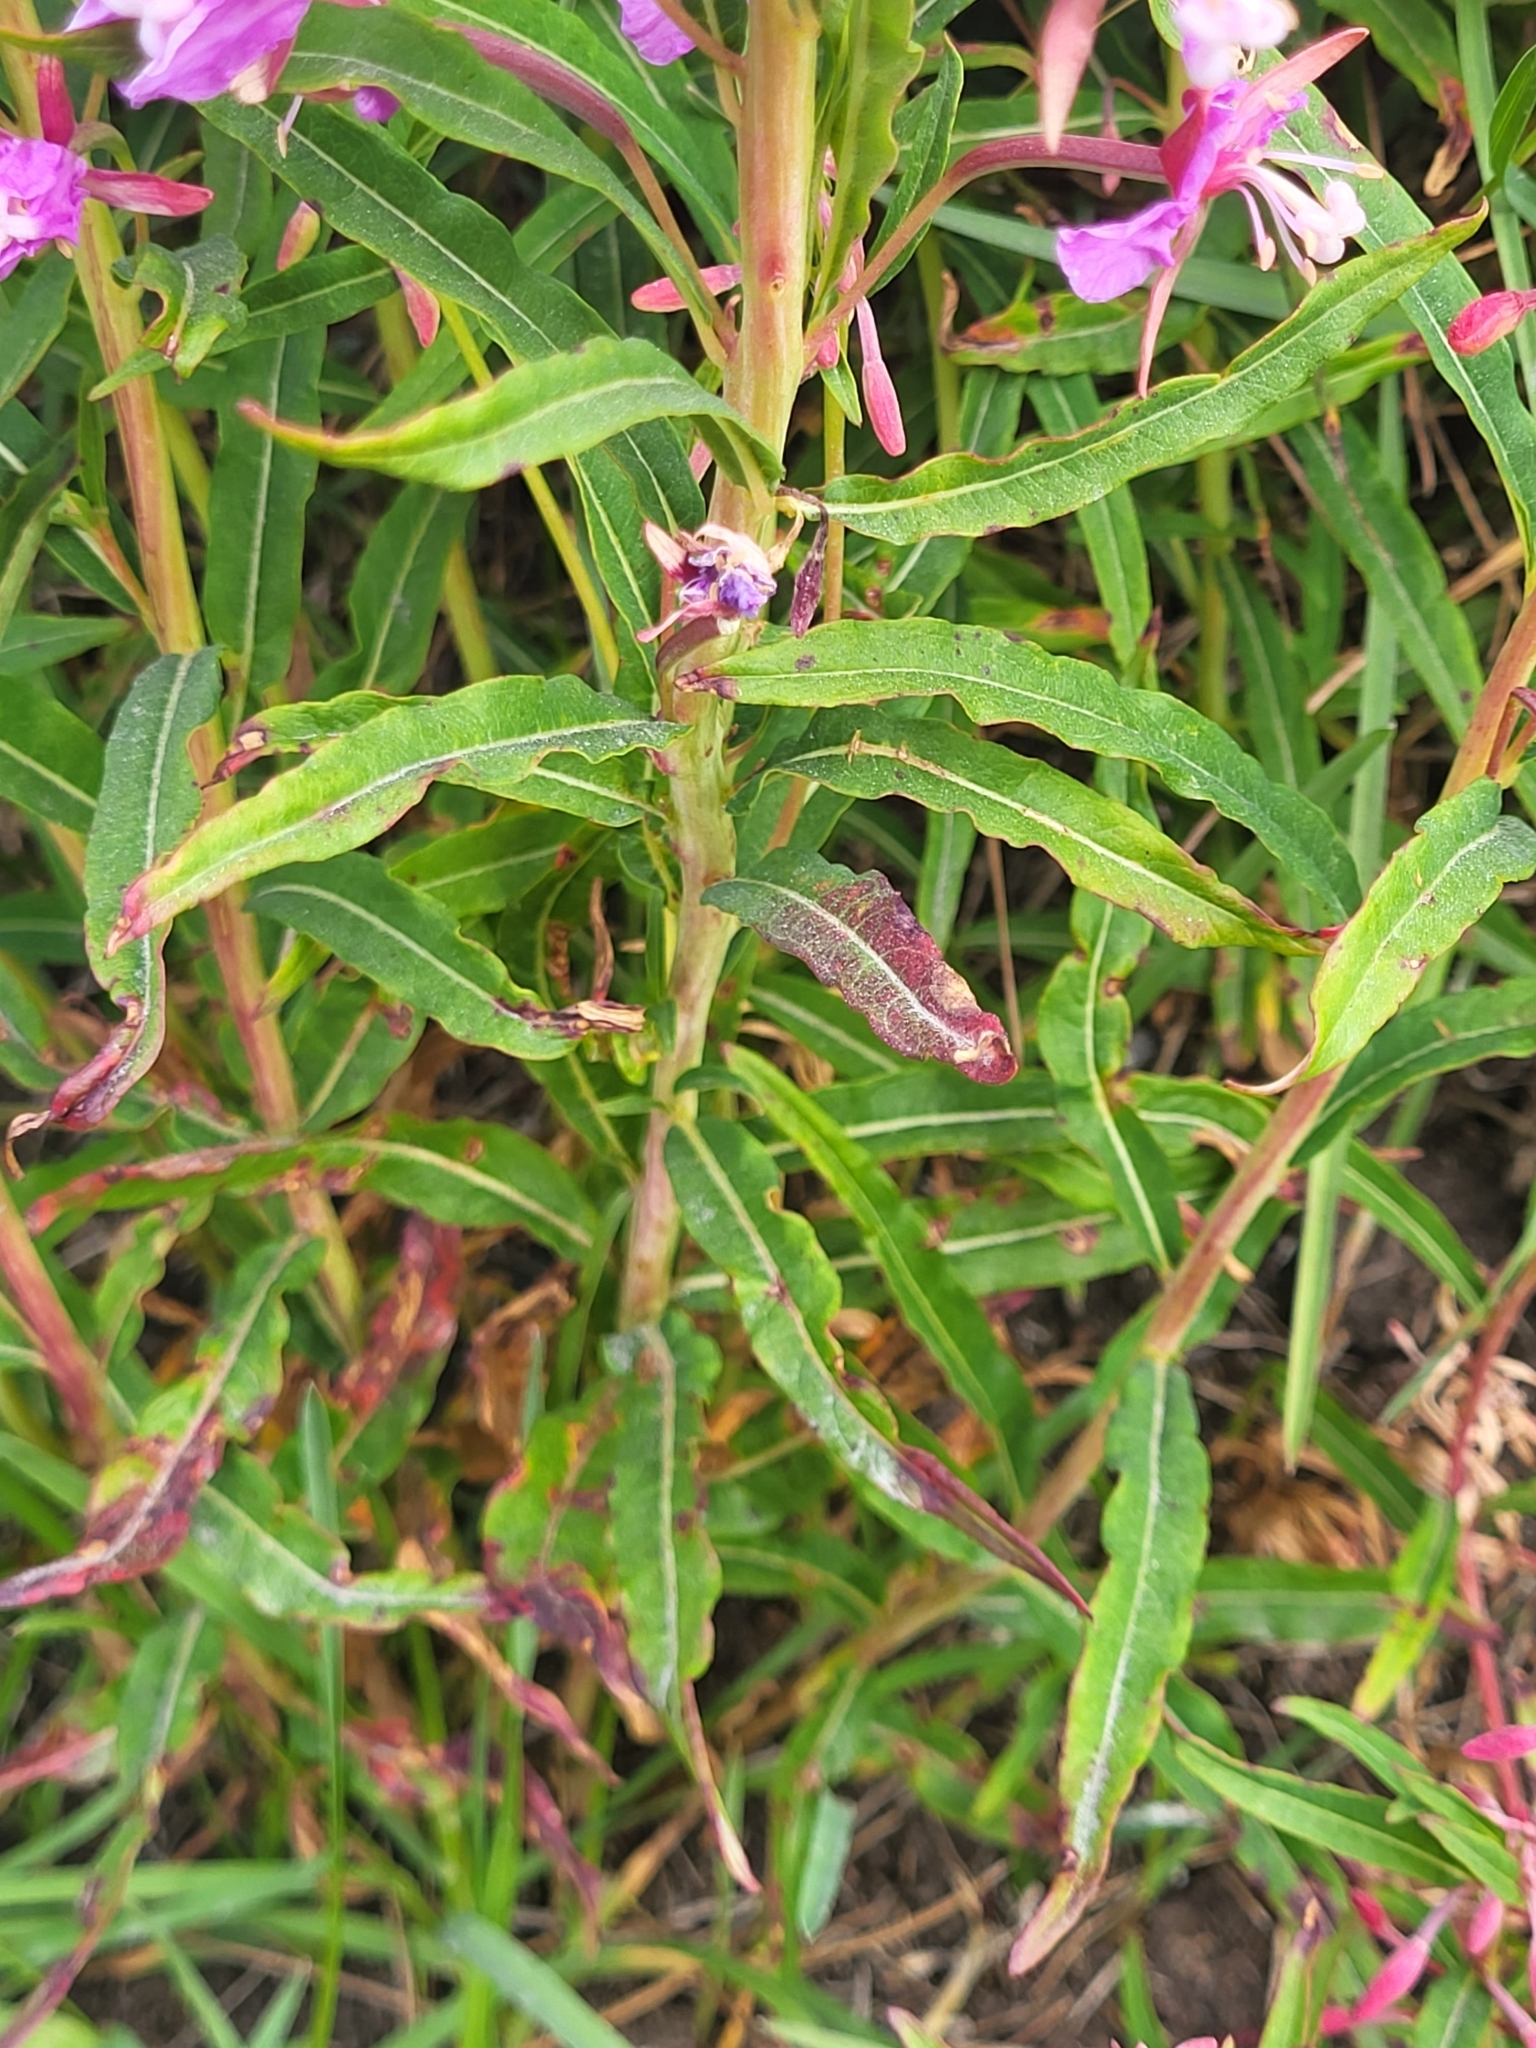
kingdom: Plantae
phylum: Tracheophyta
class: Magnoliopsida
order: Myrtales
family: Onagraceae
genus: Chamaenerion
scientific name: Chamaenerion angustifolium
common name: Fireweed
